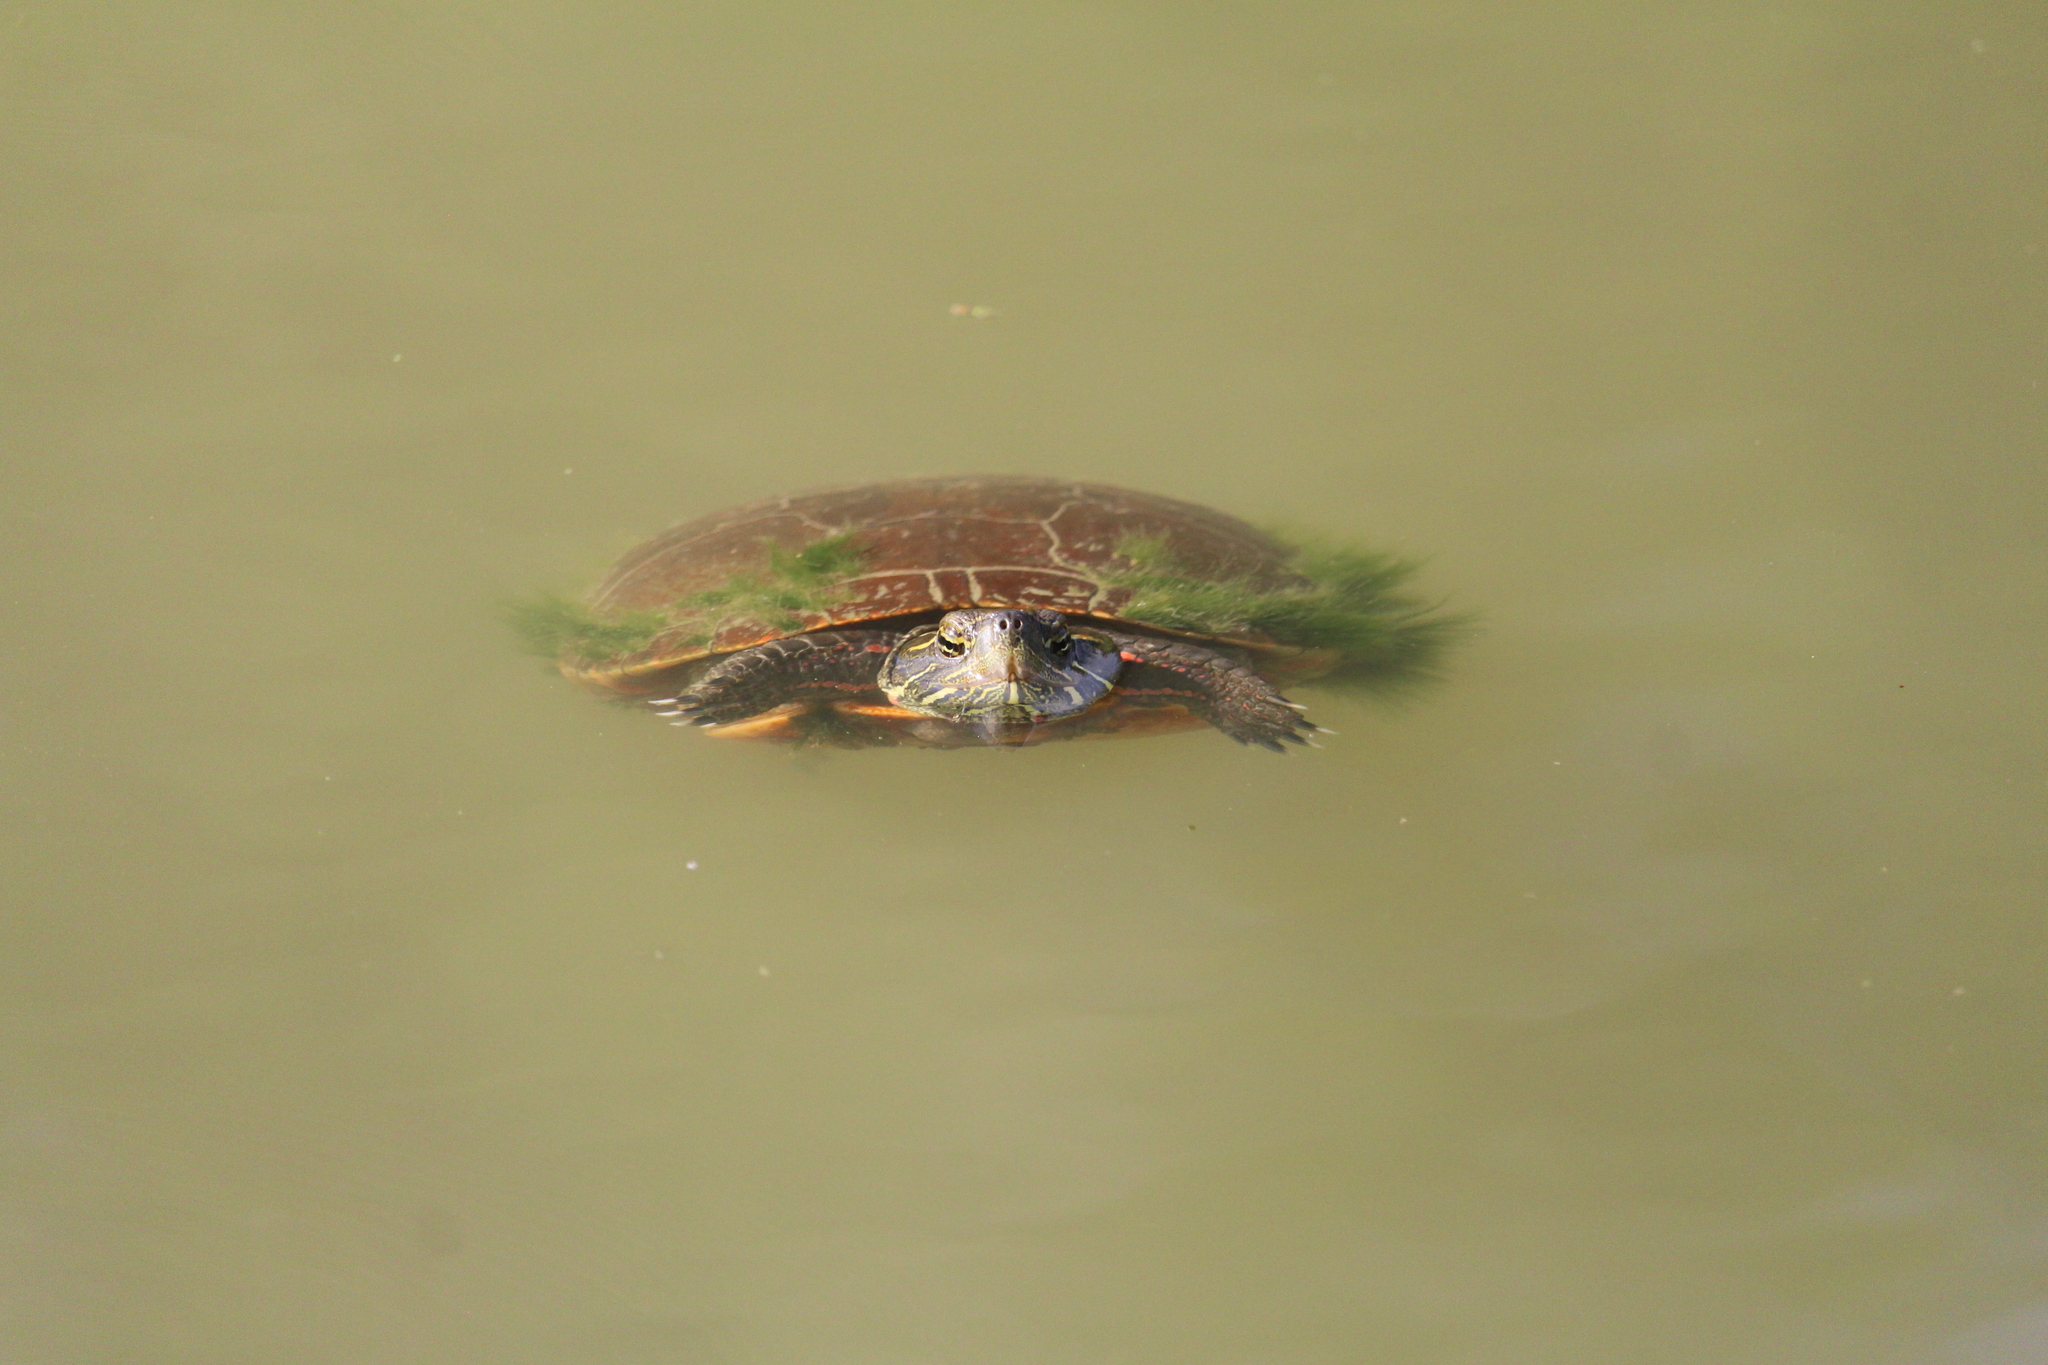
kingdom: Animalia
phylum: Chordata
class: Testudines
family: Emydidae
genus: Chrysemys
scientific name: Chrysemys picta
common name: Painted turtle
